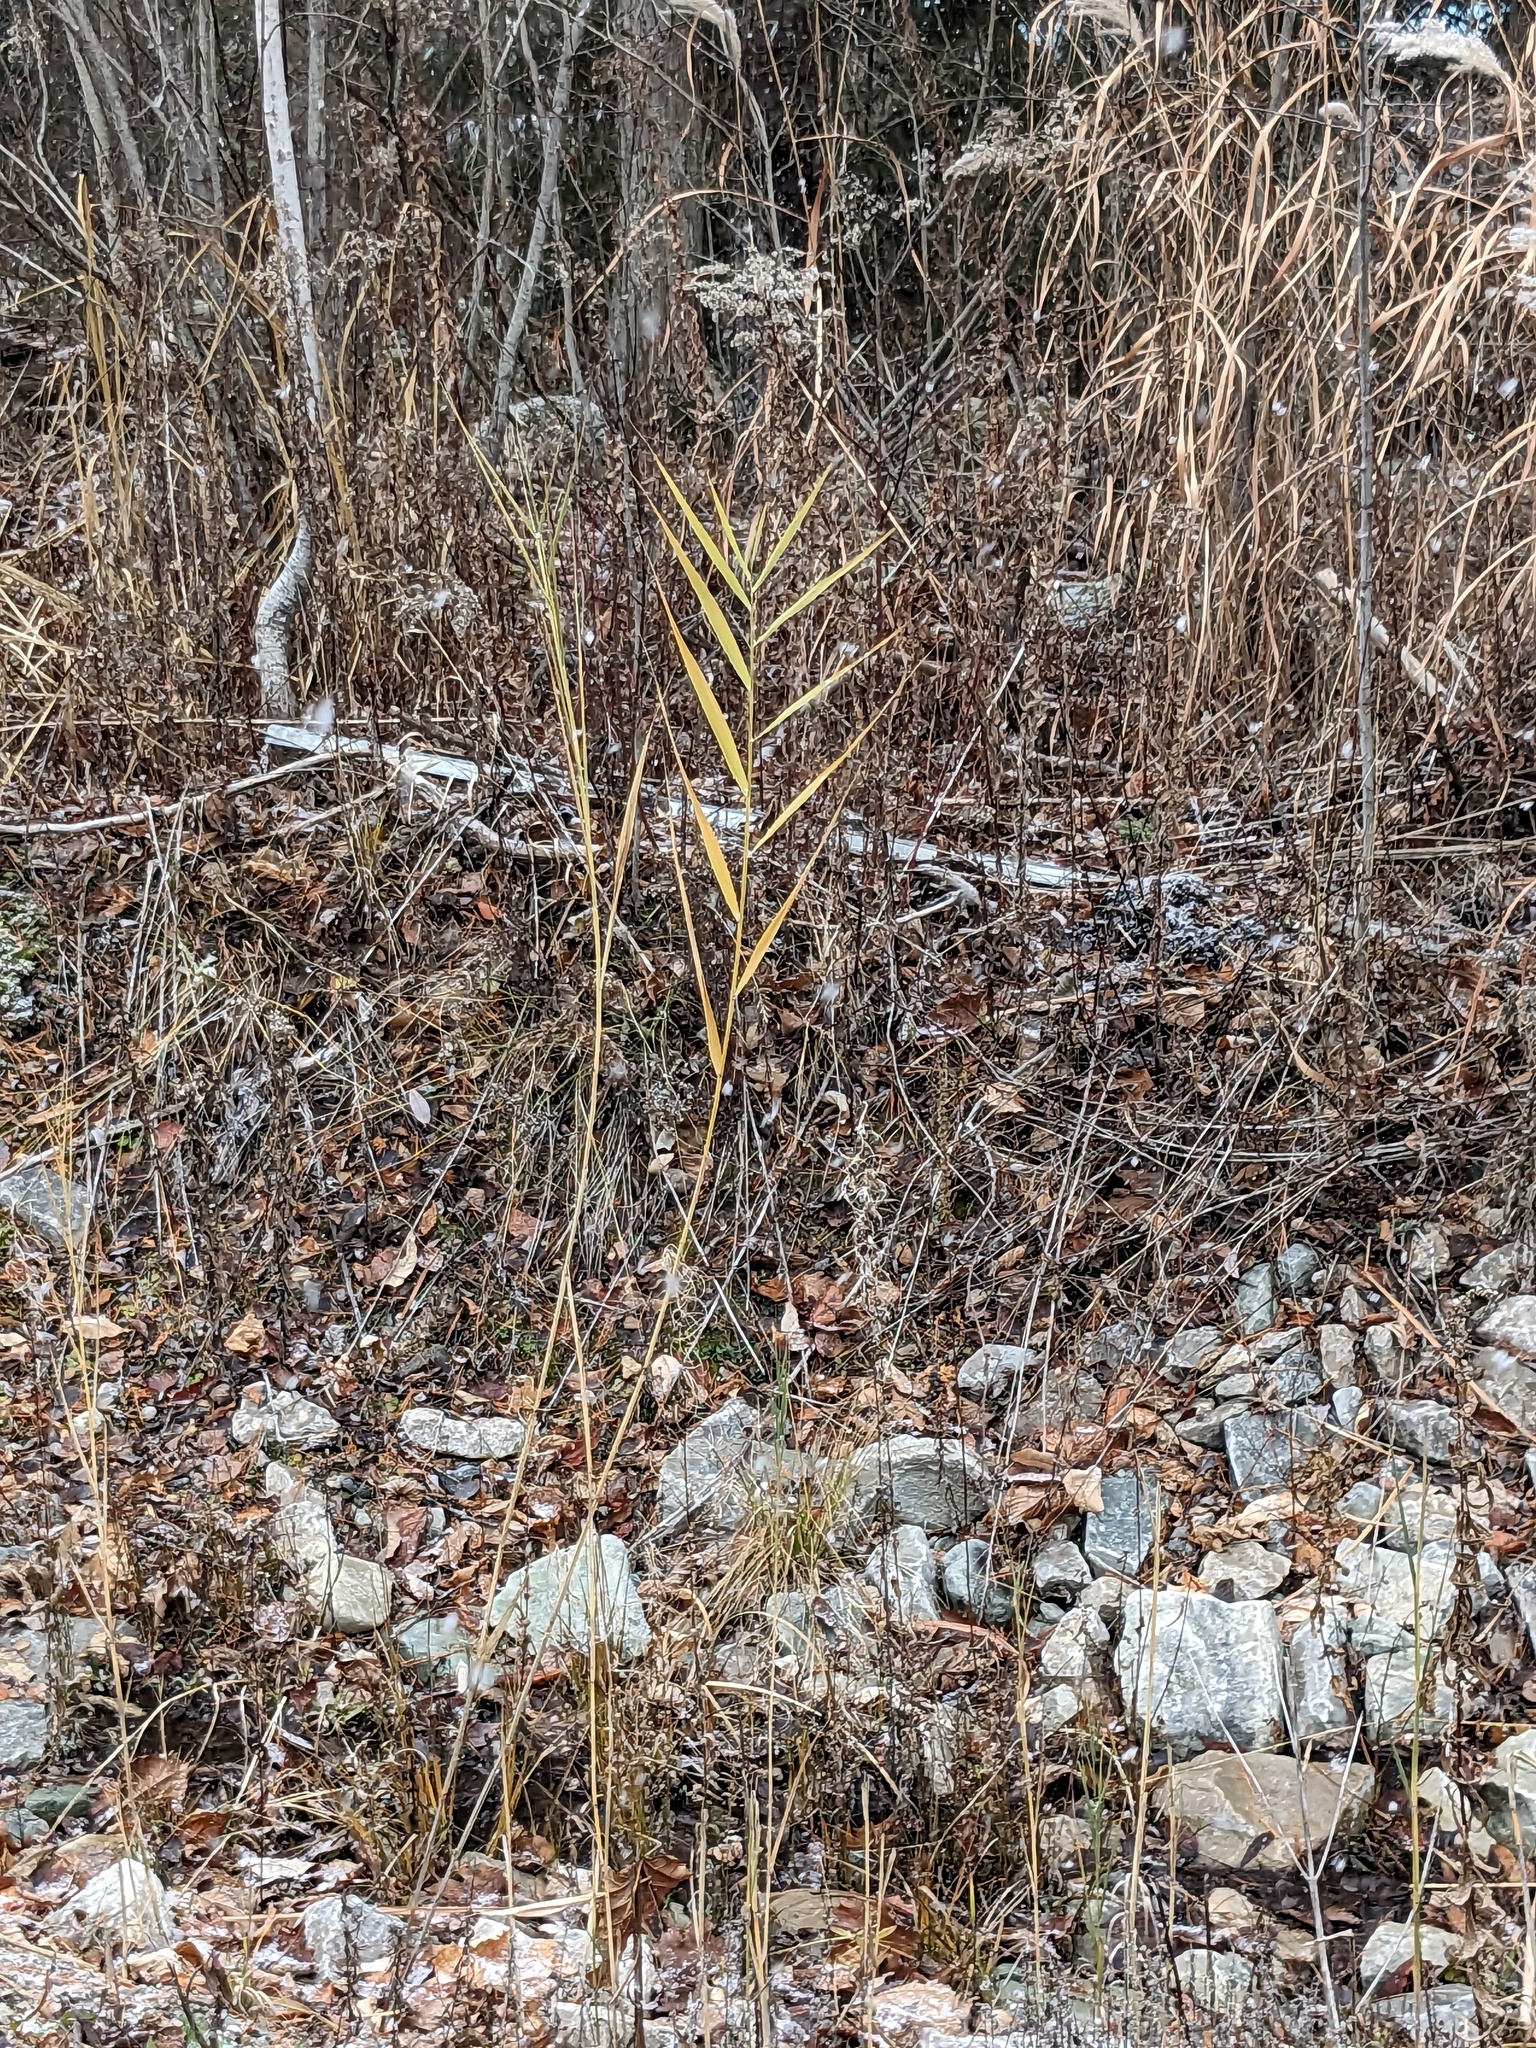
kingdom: Plantae
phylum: Tracheophyta
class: Liliopsida
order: Poales
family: Poaceae
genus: Phragmites
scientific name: Phragmites australis
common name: Common reed
